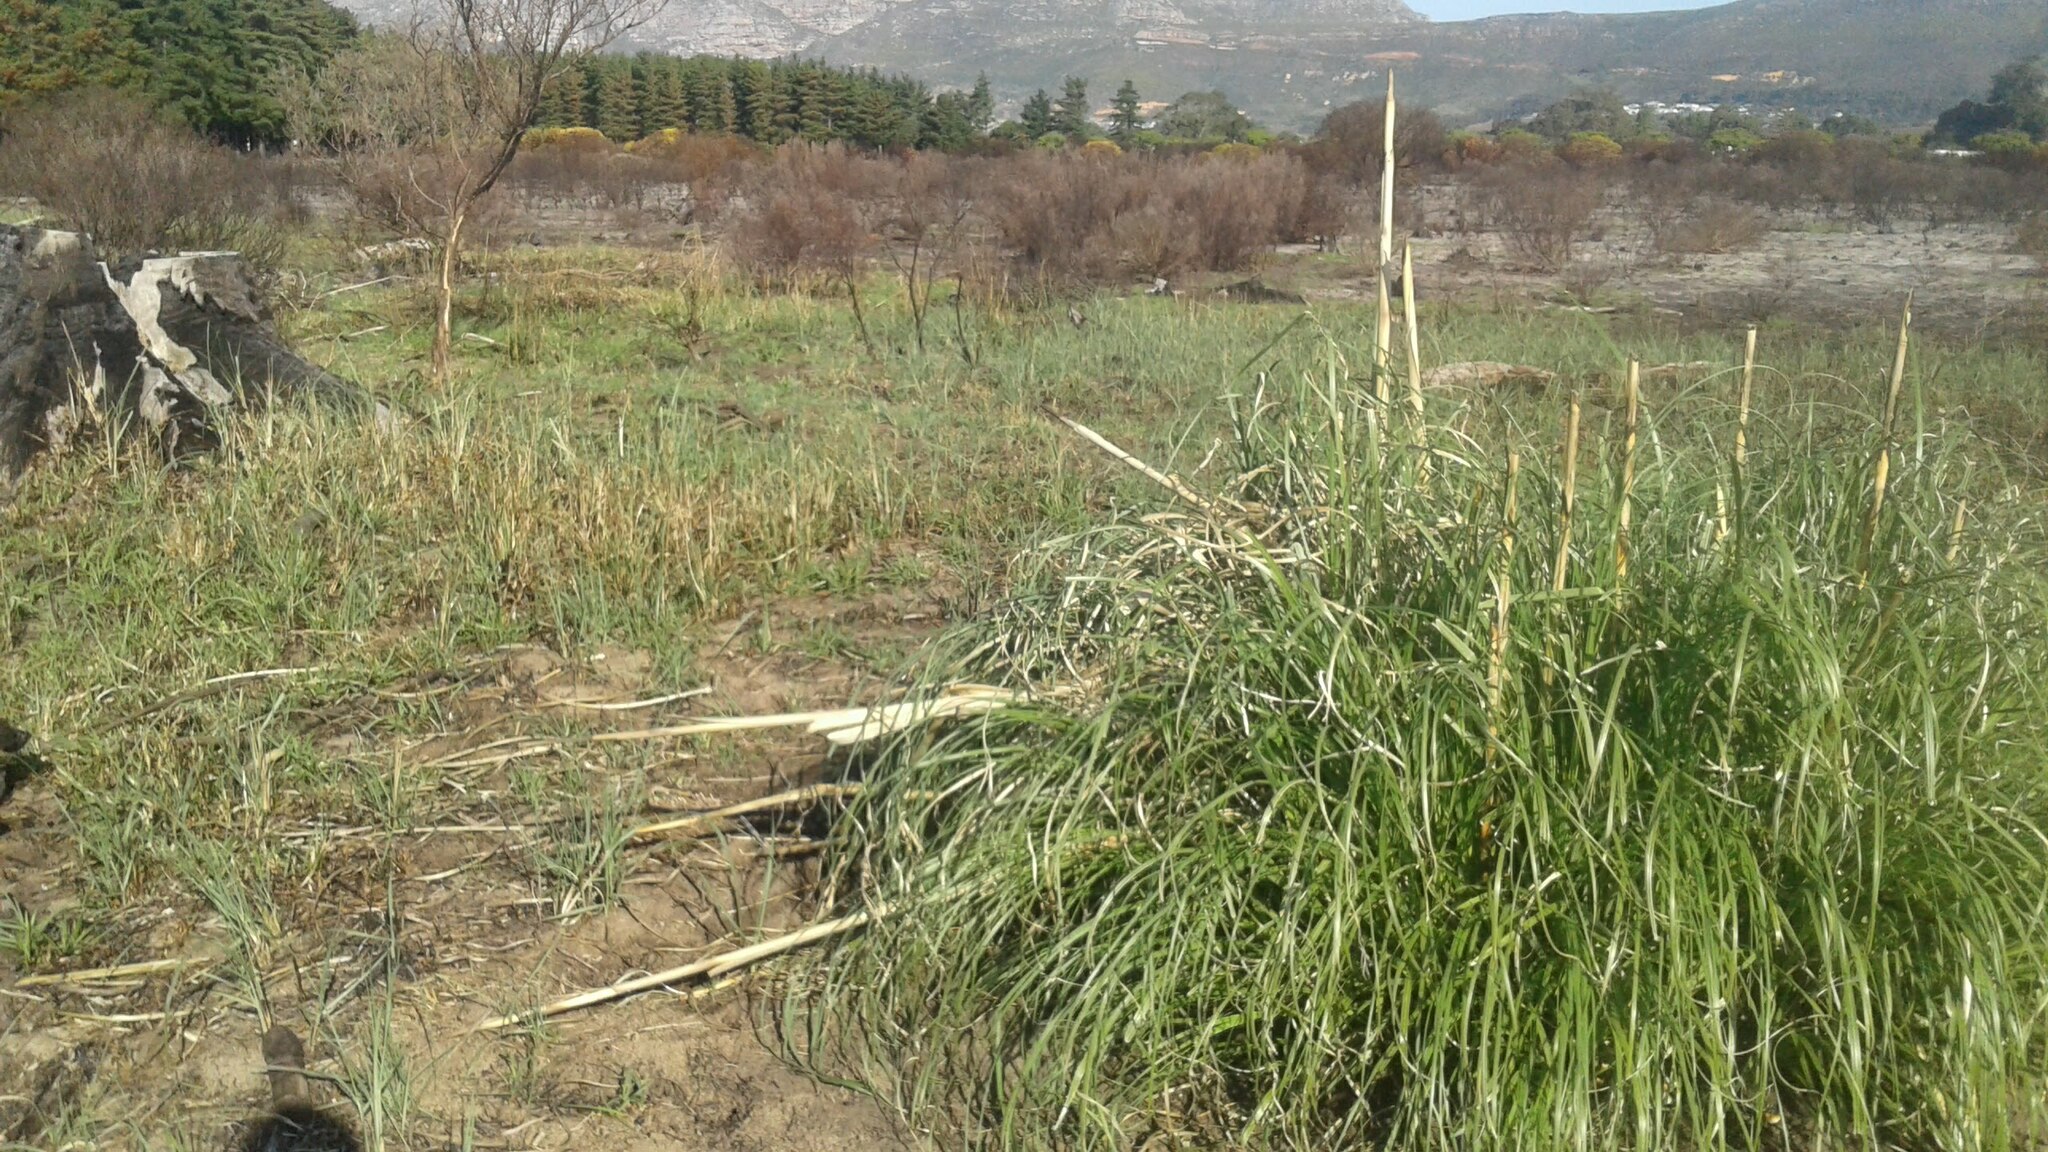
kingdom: Plantae
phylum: Tracheophyta
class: Liliopsida
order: Poales
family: Poaceae
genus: Cortaderia
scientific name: Cortaderia selloana
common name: Uruguayan pampas grass
